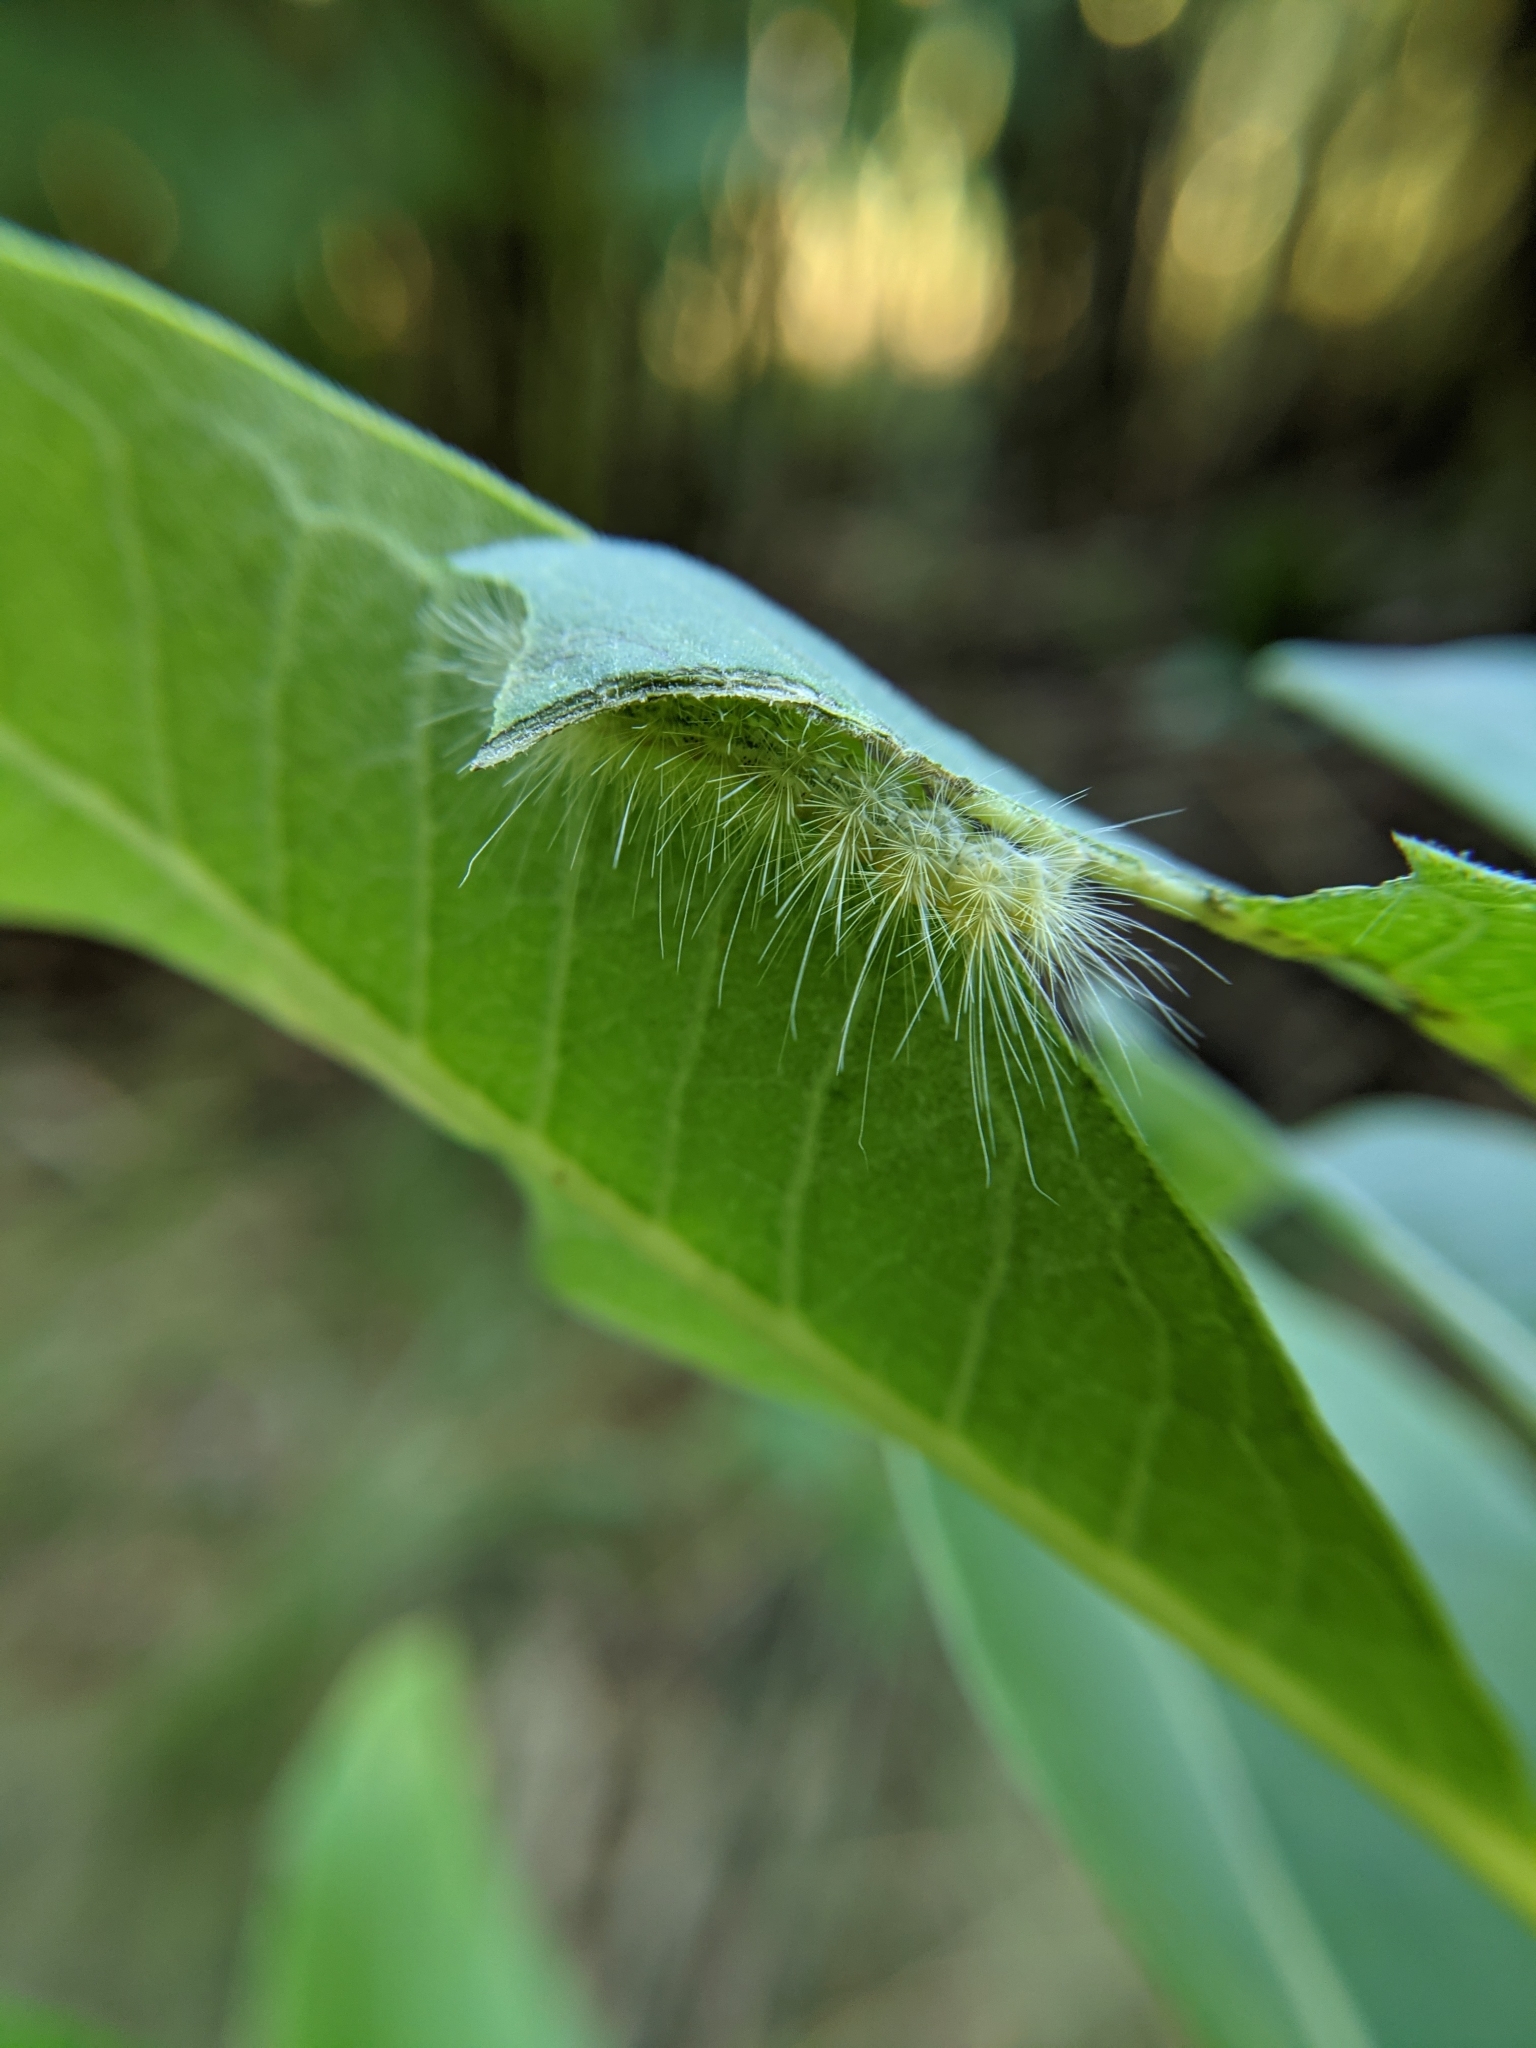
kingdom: Animalia
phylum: Arthropoda
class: Insecta
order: Lepidoptera
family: Erebidae
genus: Spilosoma
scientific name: Spilosoma virginica
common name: Virginia tiger moth
